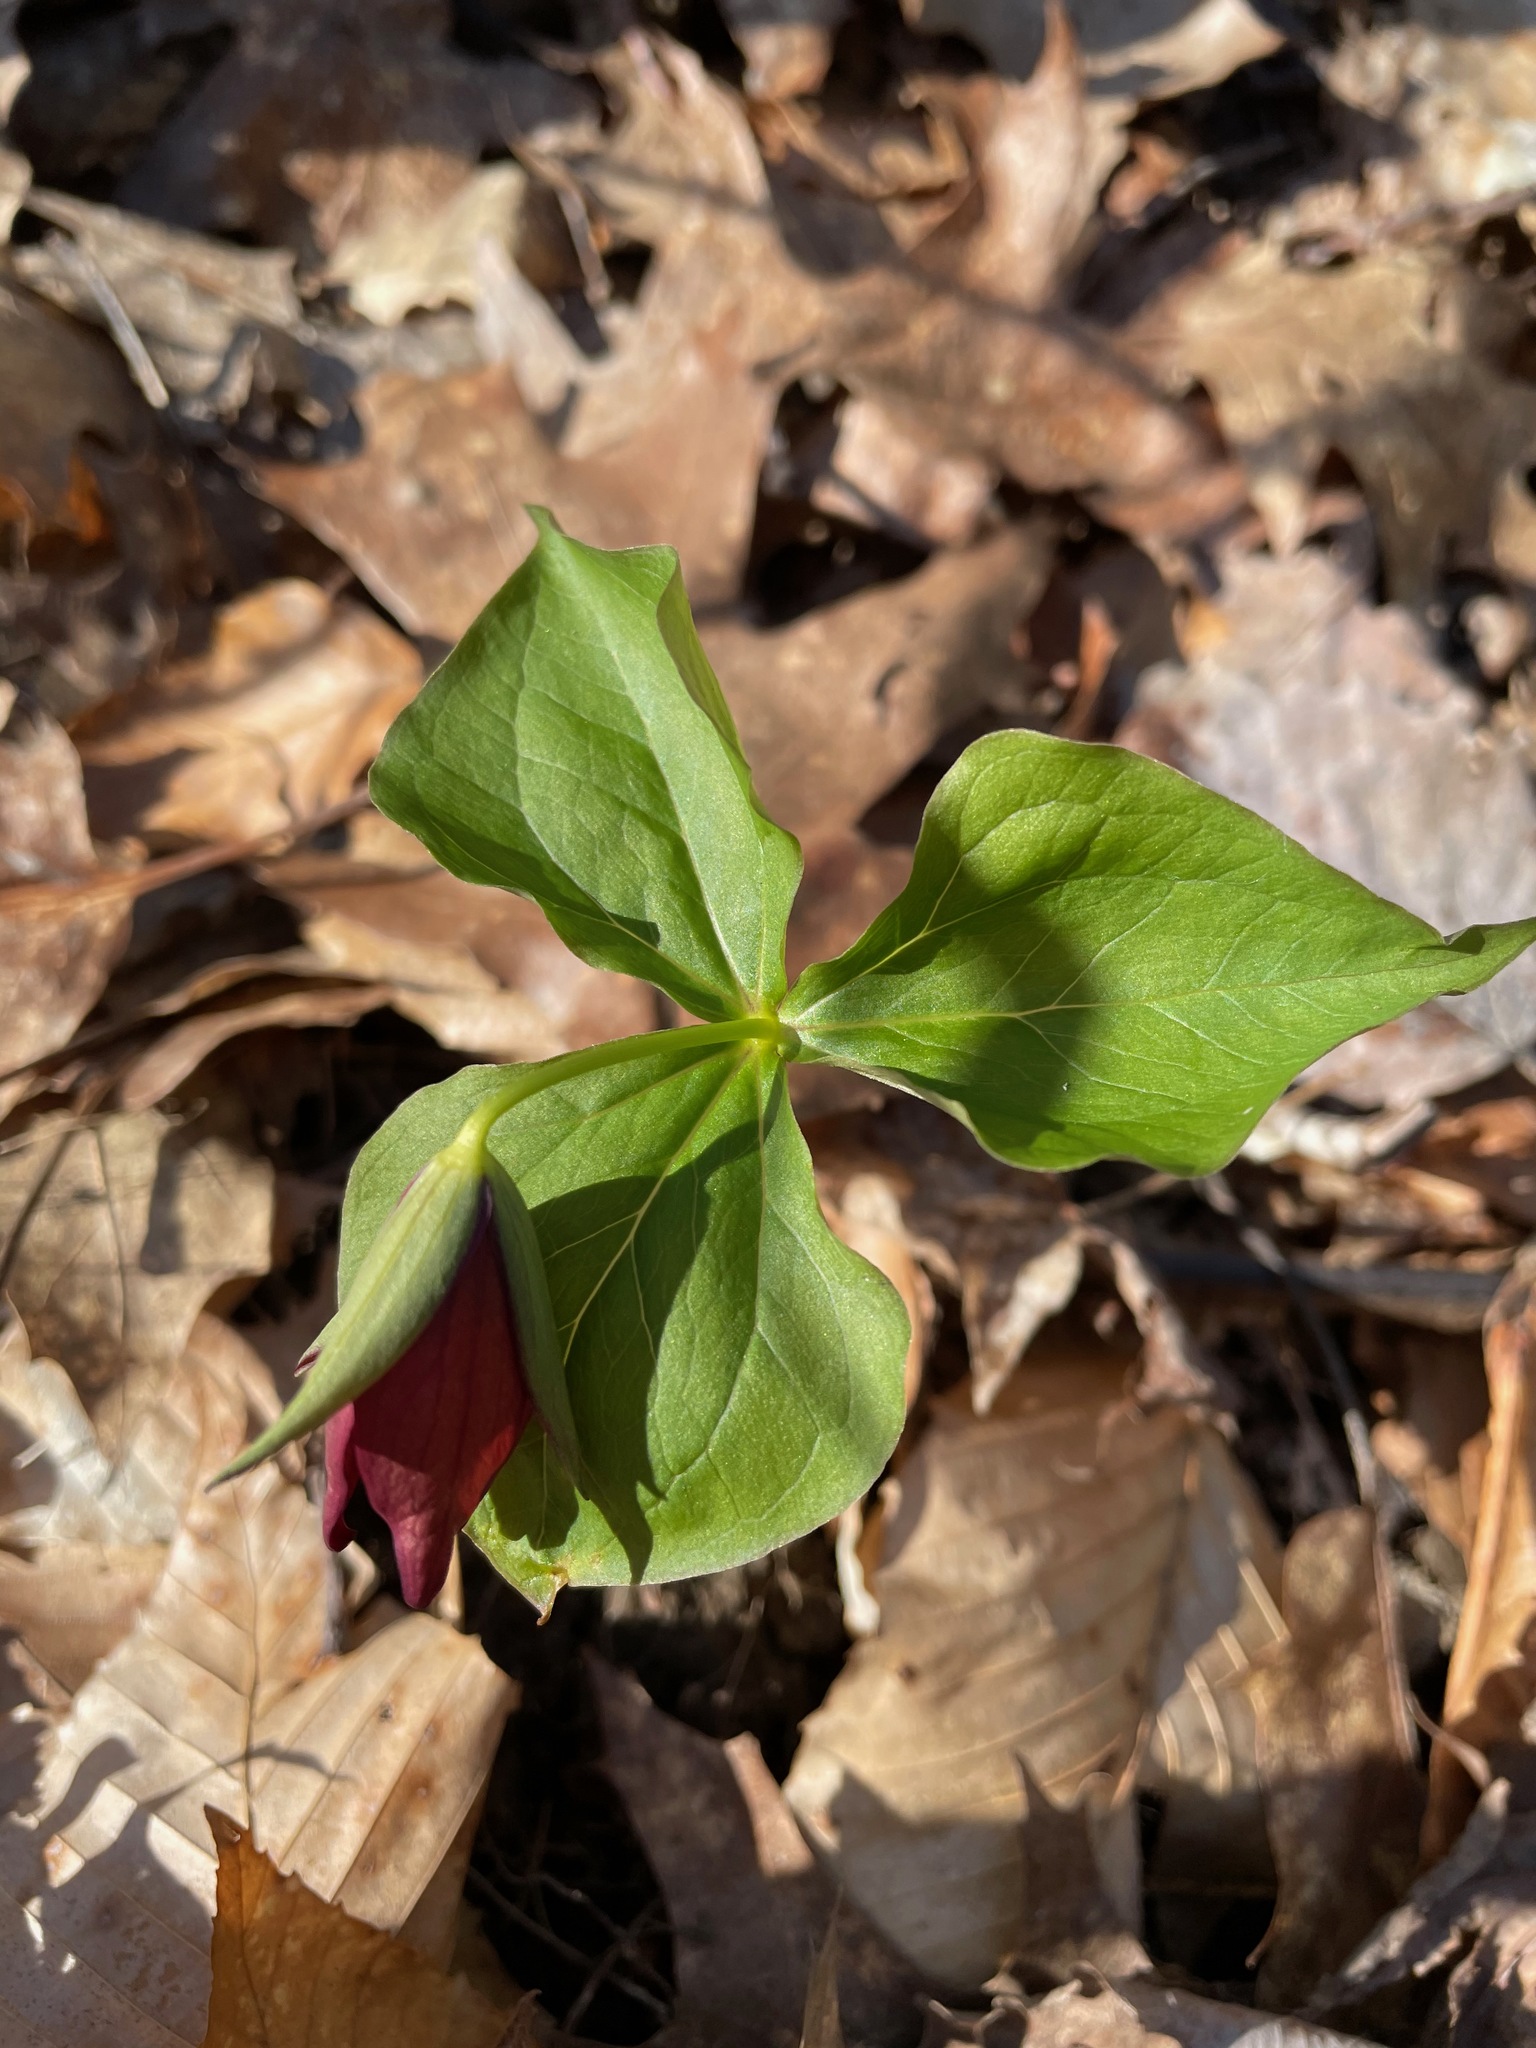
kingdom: Plantae
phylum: Tracheophyta
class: Liliopsida
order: Liliales
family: Melanthiaceae
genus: Trillium
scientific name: Trillium erectum
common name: Purple trillium
